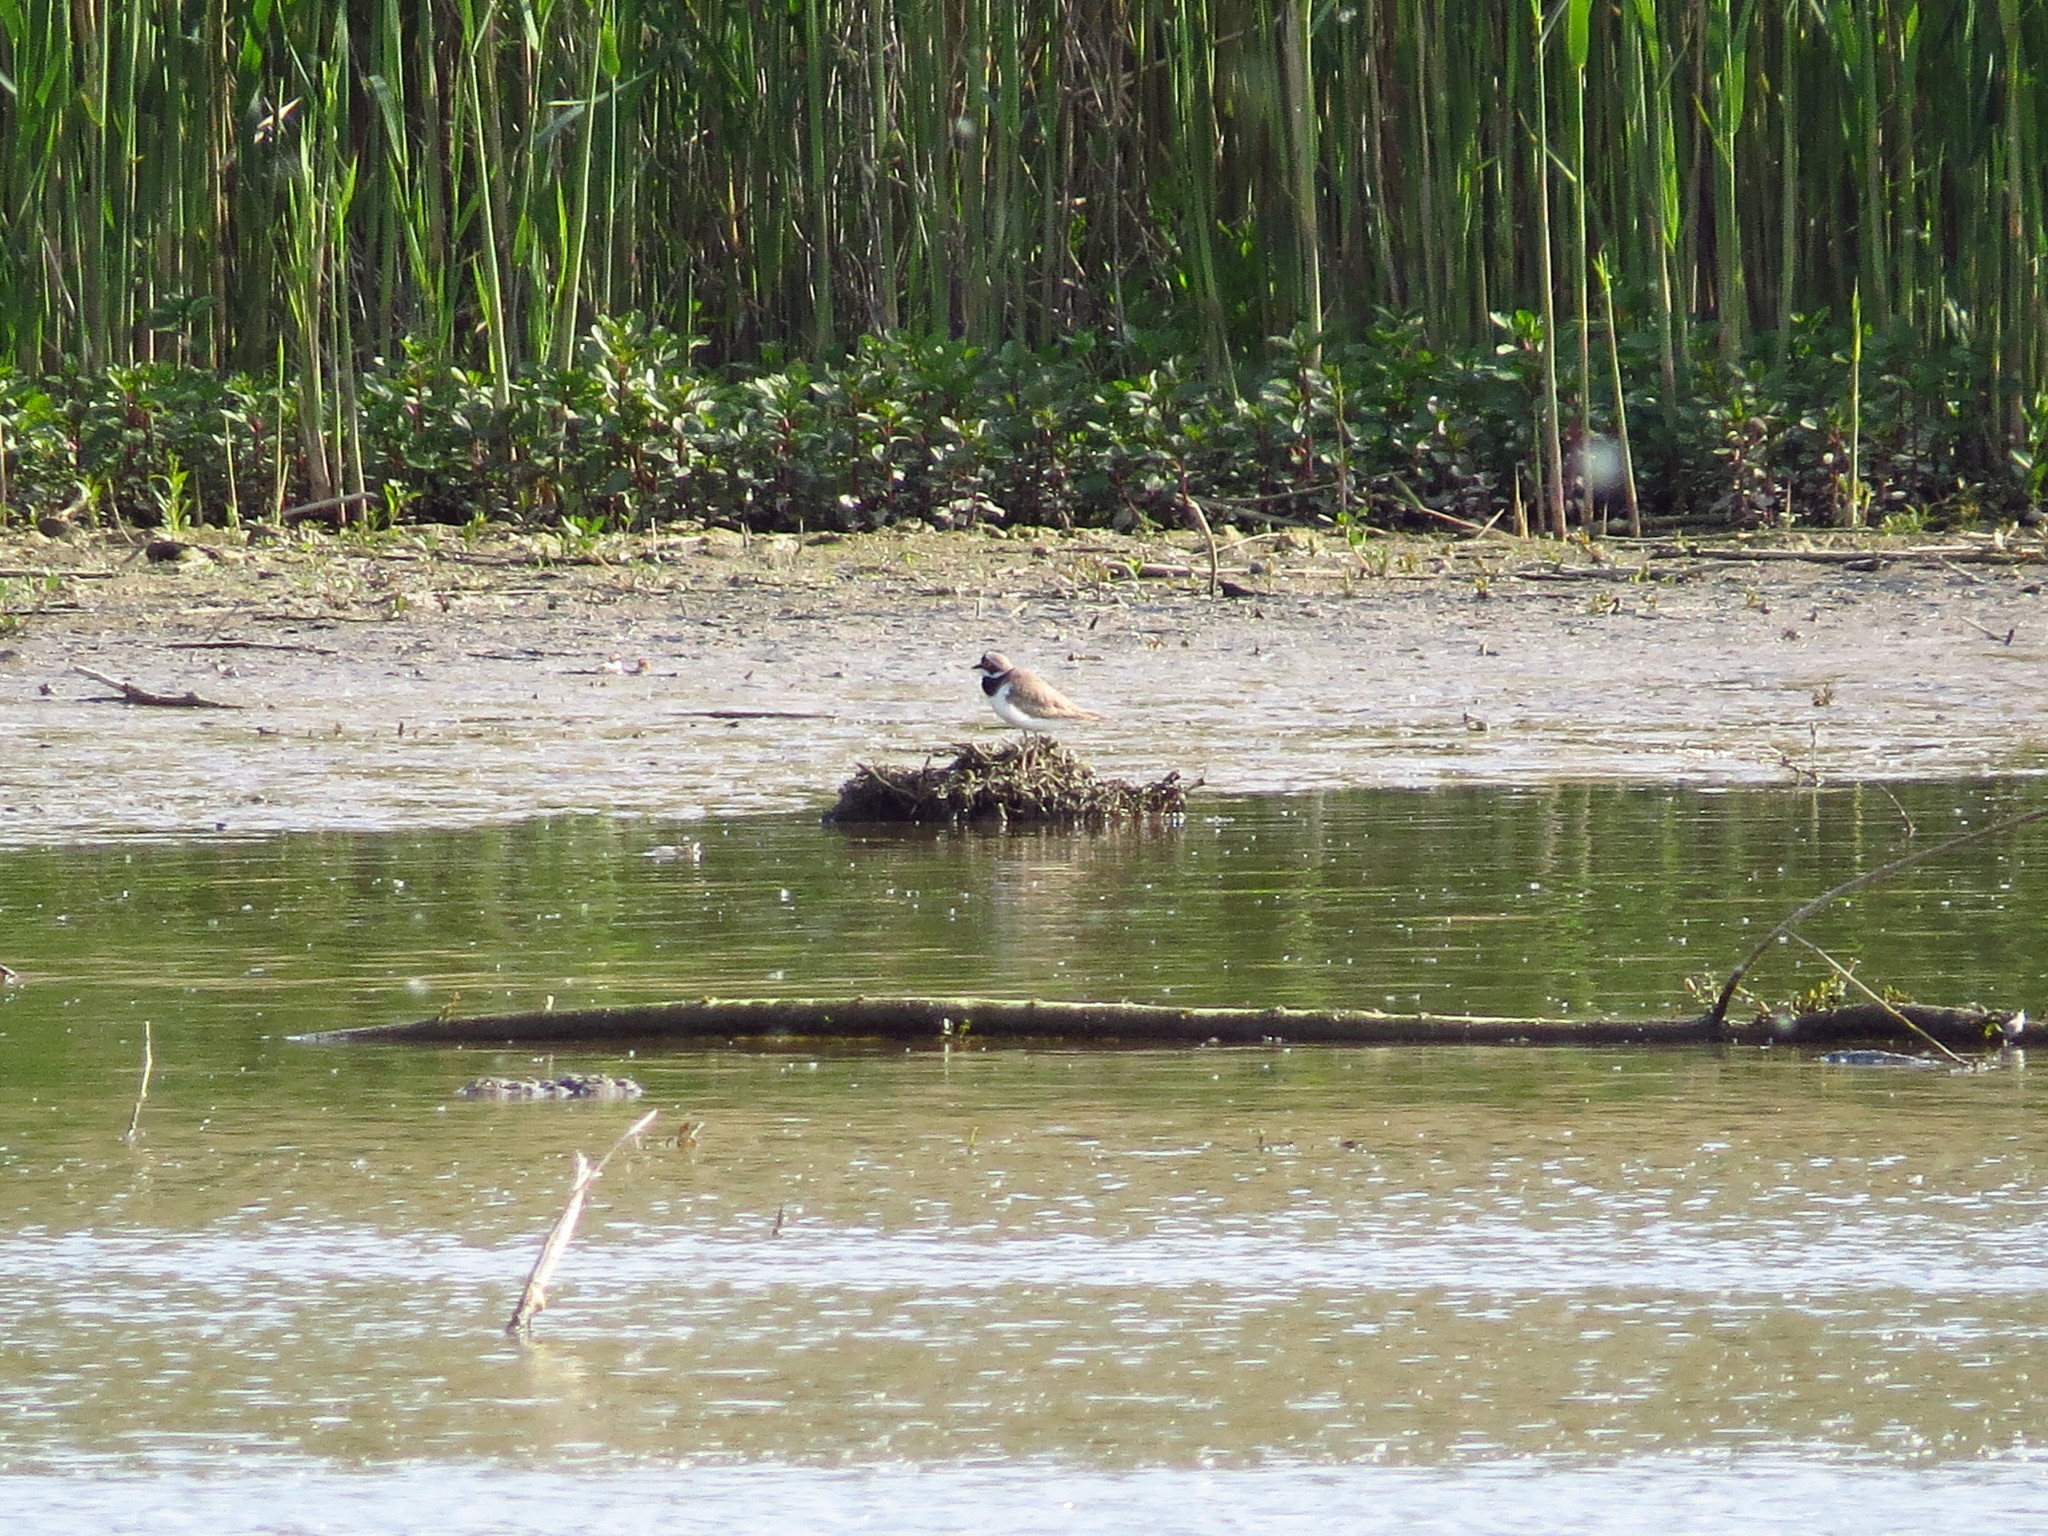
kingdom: Animalia
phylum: Chordata
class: Aves
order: Charadriiformes
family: Charadriidae
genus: Charadrius
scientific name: Charadrius dubius
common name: Little ringed plover
